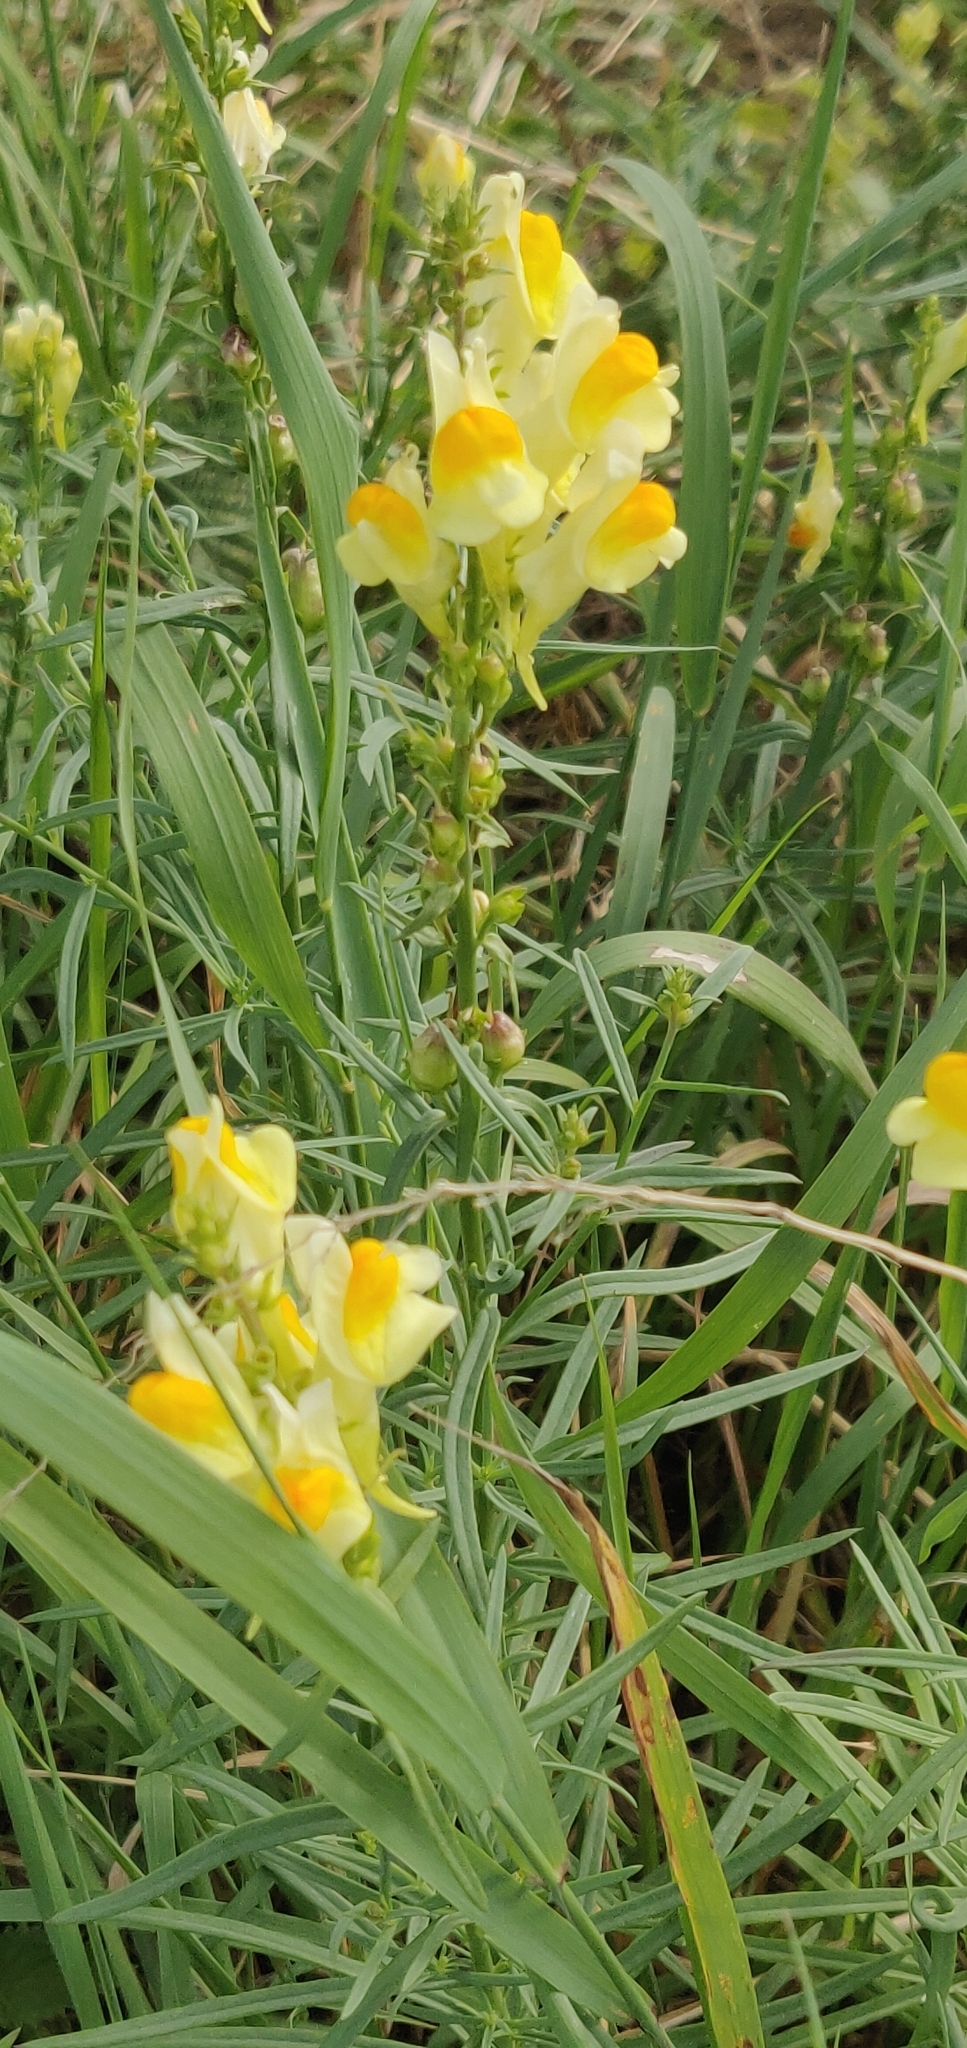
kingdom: Plantae
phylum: Tracheophyta
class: Magnoliopsida
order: Lamiales
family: Plantaginaceae
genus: Linaria
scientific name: Linaria vulgaris
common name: Butter and eggs
